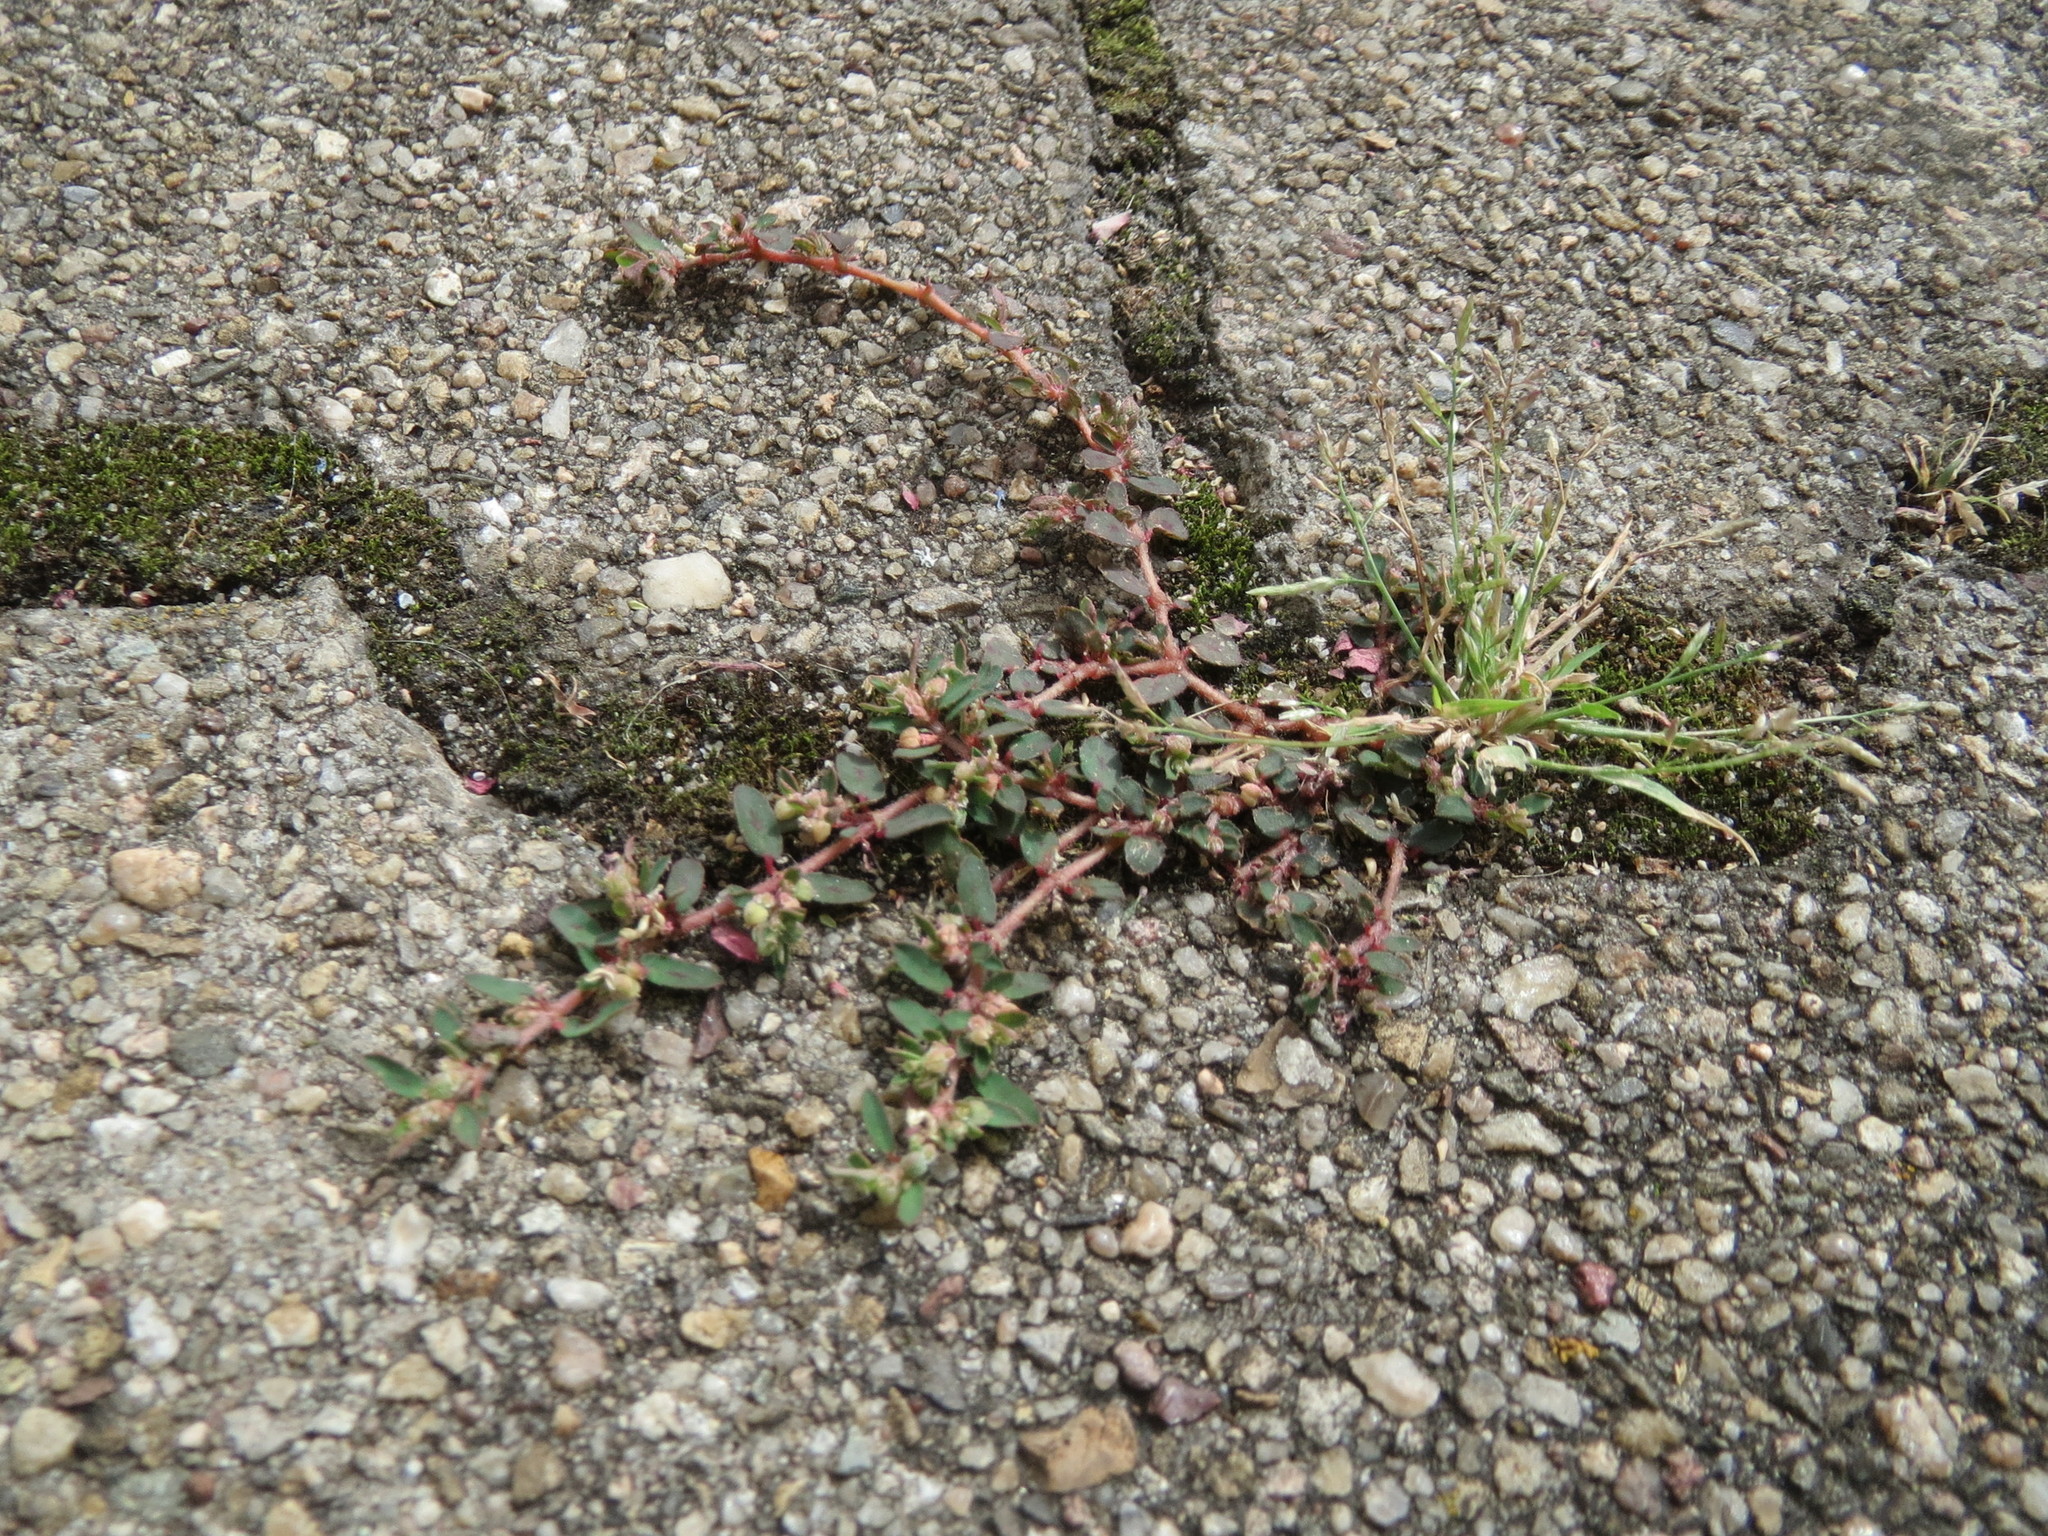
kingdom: Plantae
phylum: Tracheophyta
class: Magnoliopsida
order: Malpighiales
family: Euphorbiaceae
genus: Euphorbia
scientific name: Euphorbia maculata
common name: Spotted spurge
